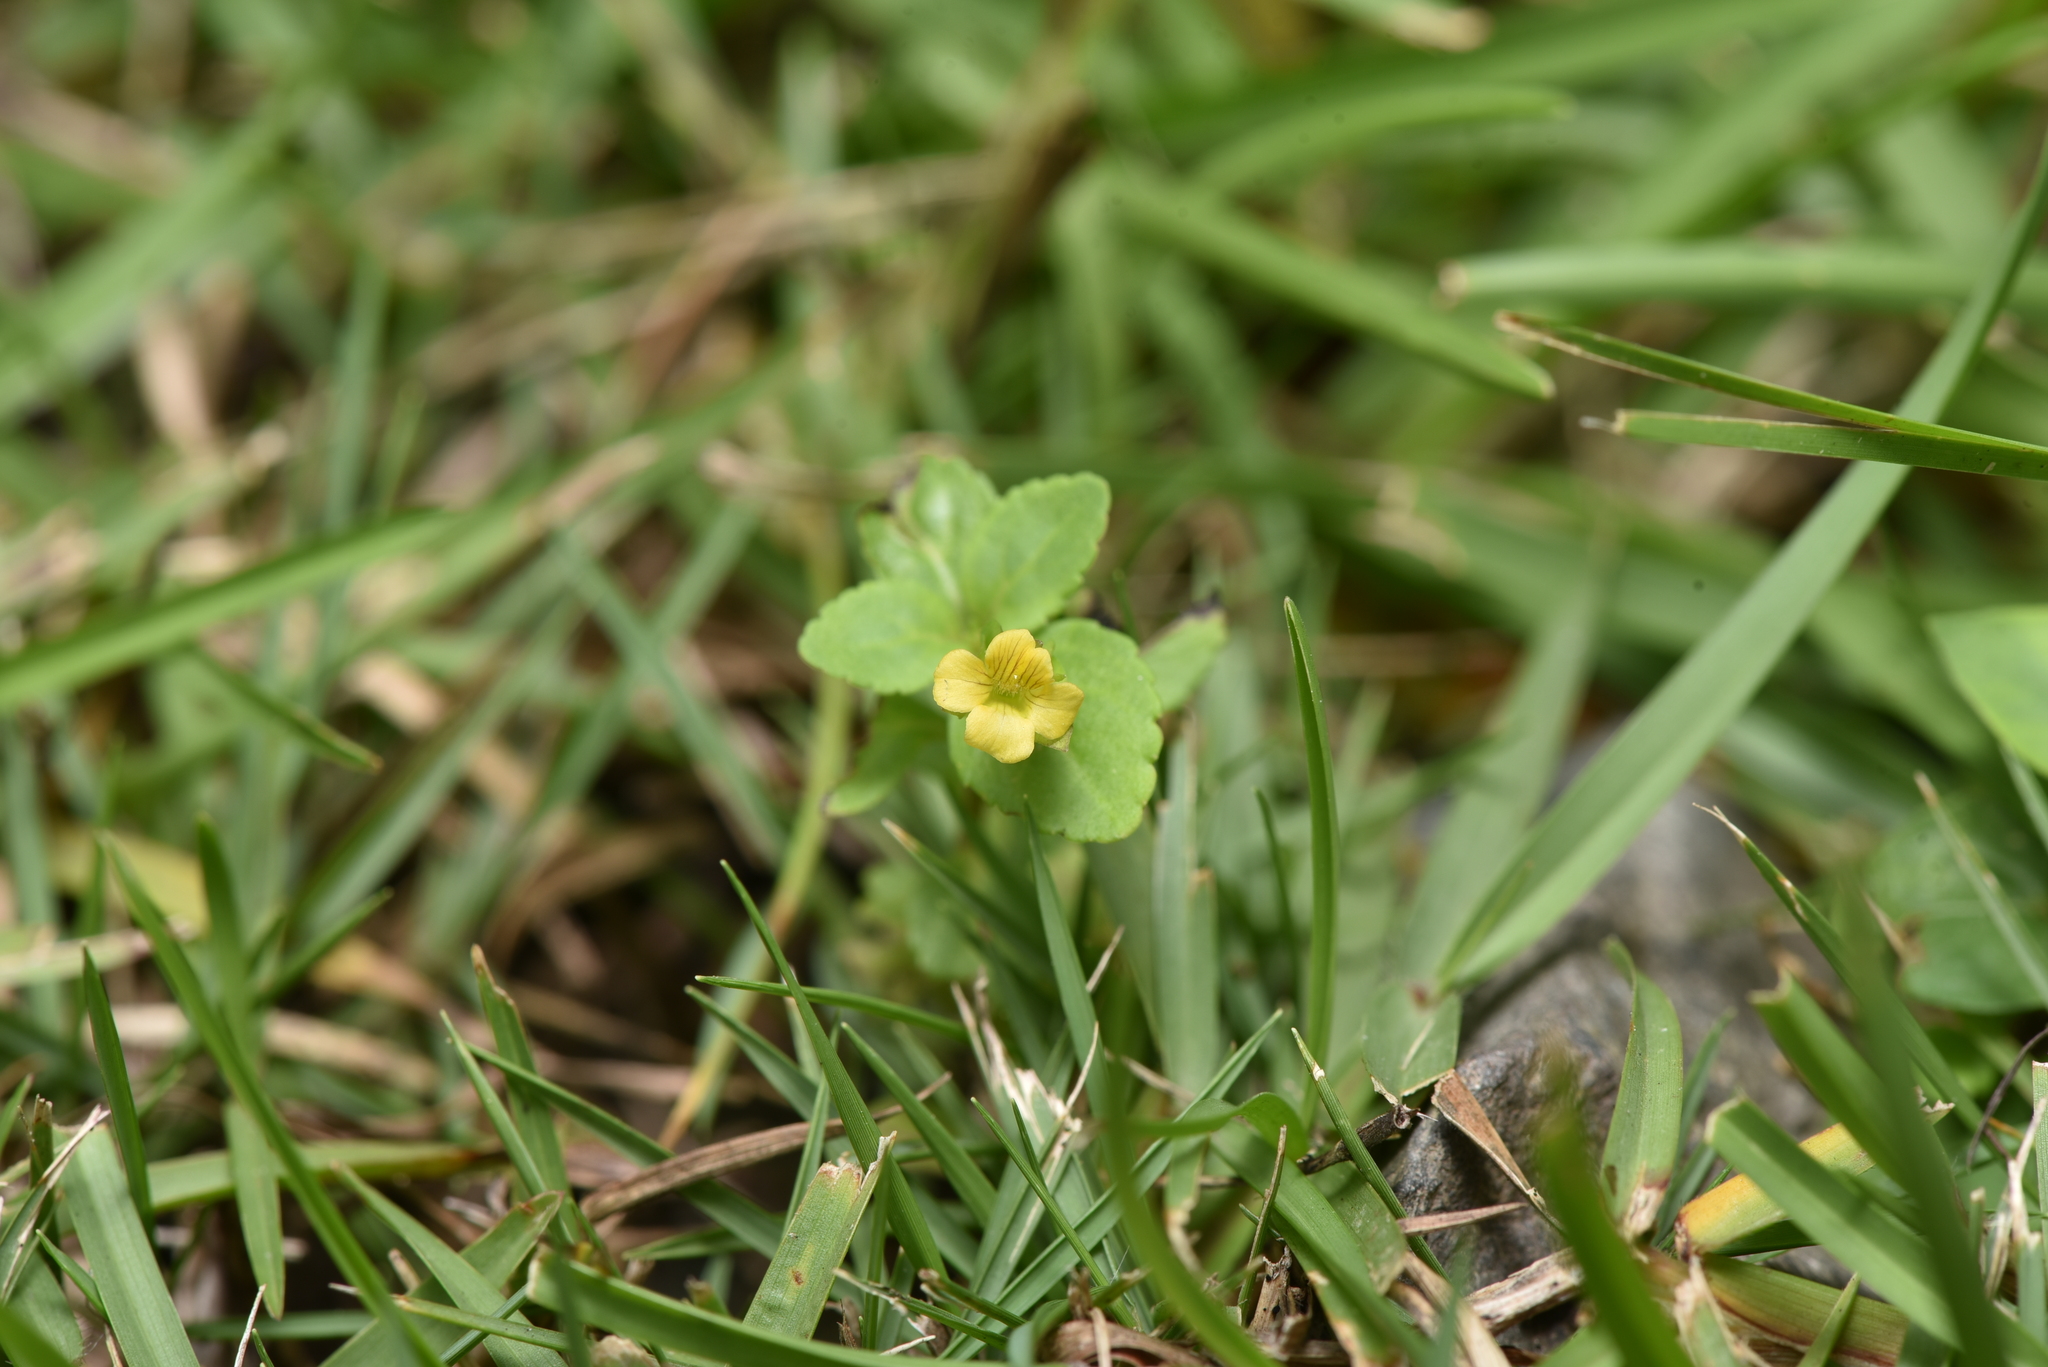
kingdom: Plantae
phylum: Tracheophyta
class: Magnoliopsida
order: Lamiales
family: Plantaginaceae
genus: Mecardonia
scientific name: Mecardonia procumbens
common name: Baby jump-up
